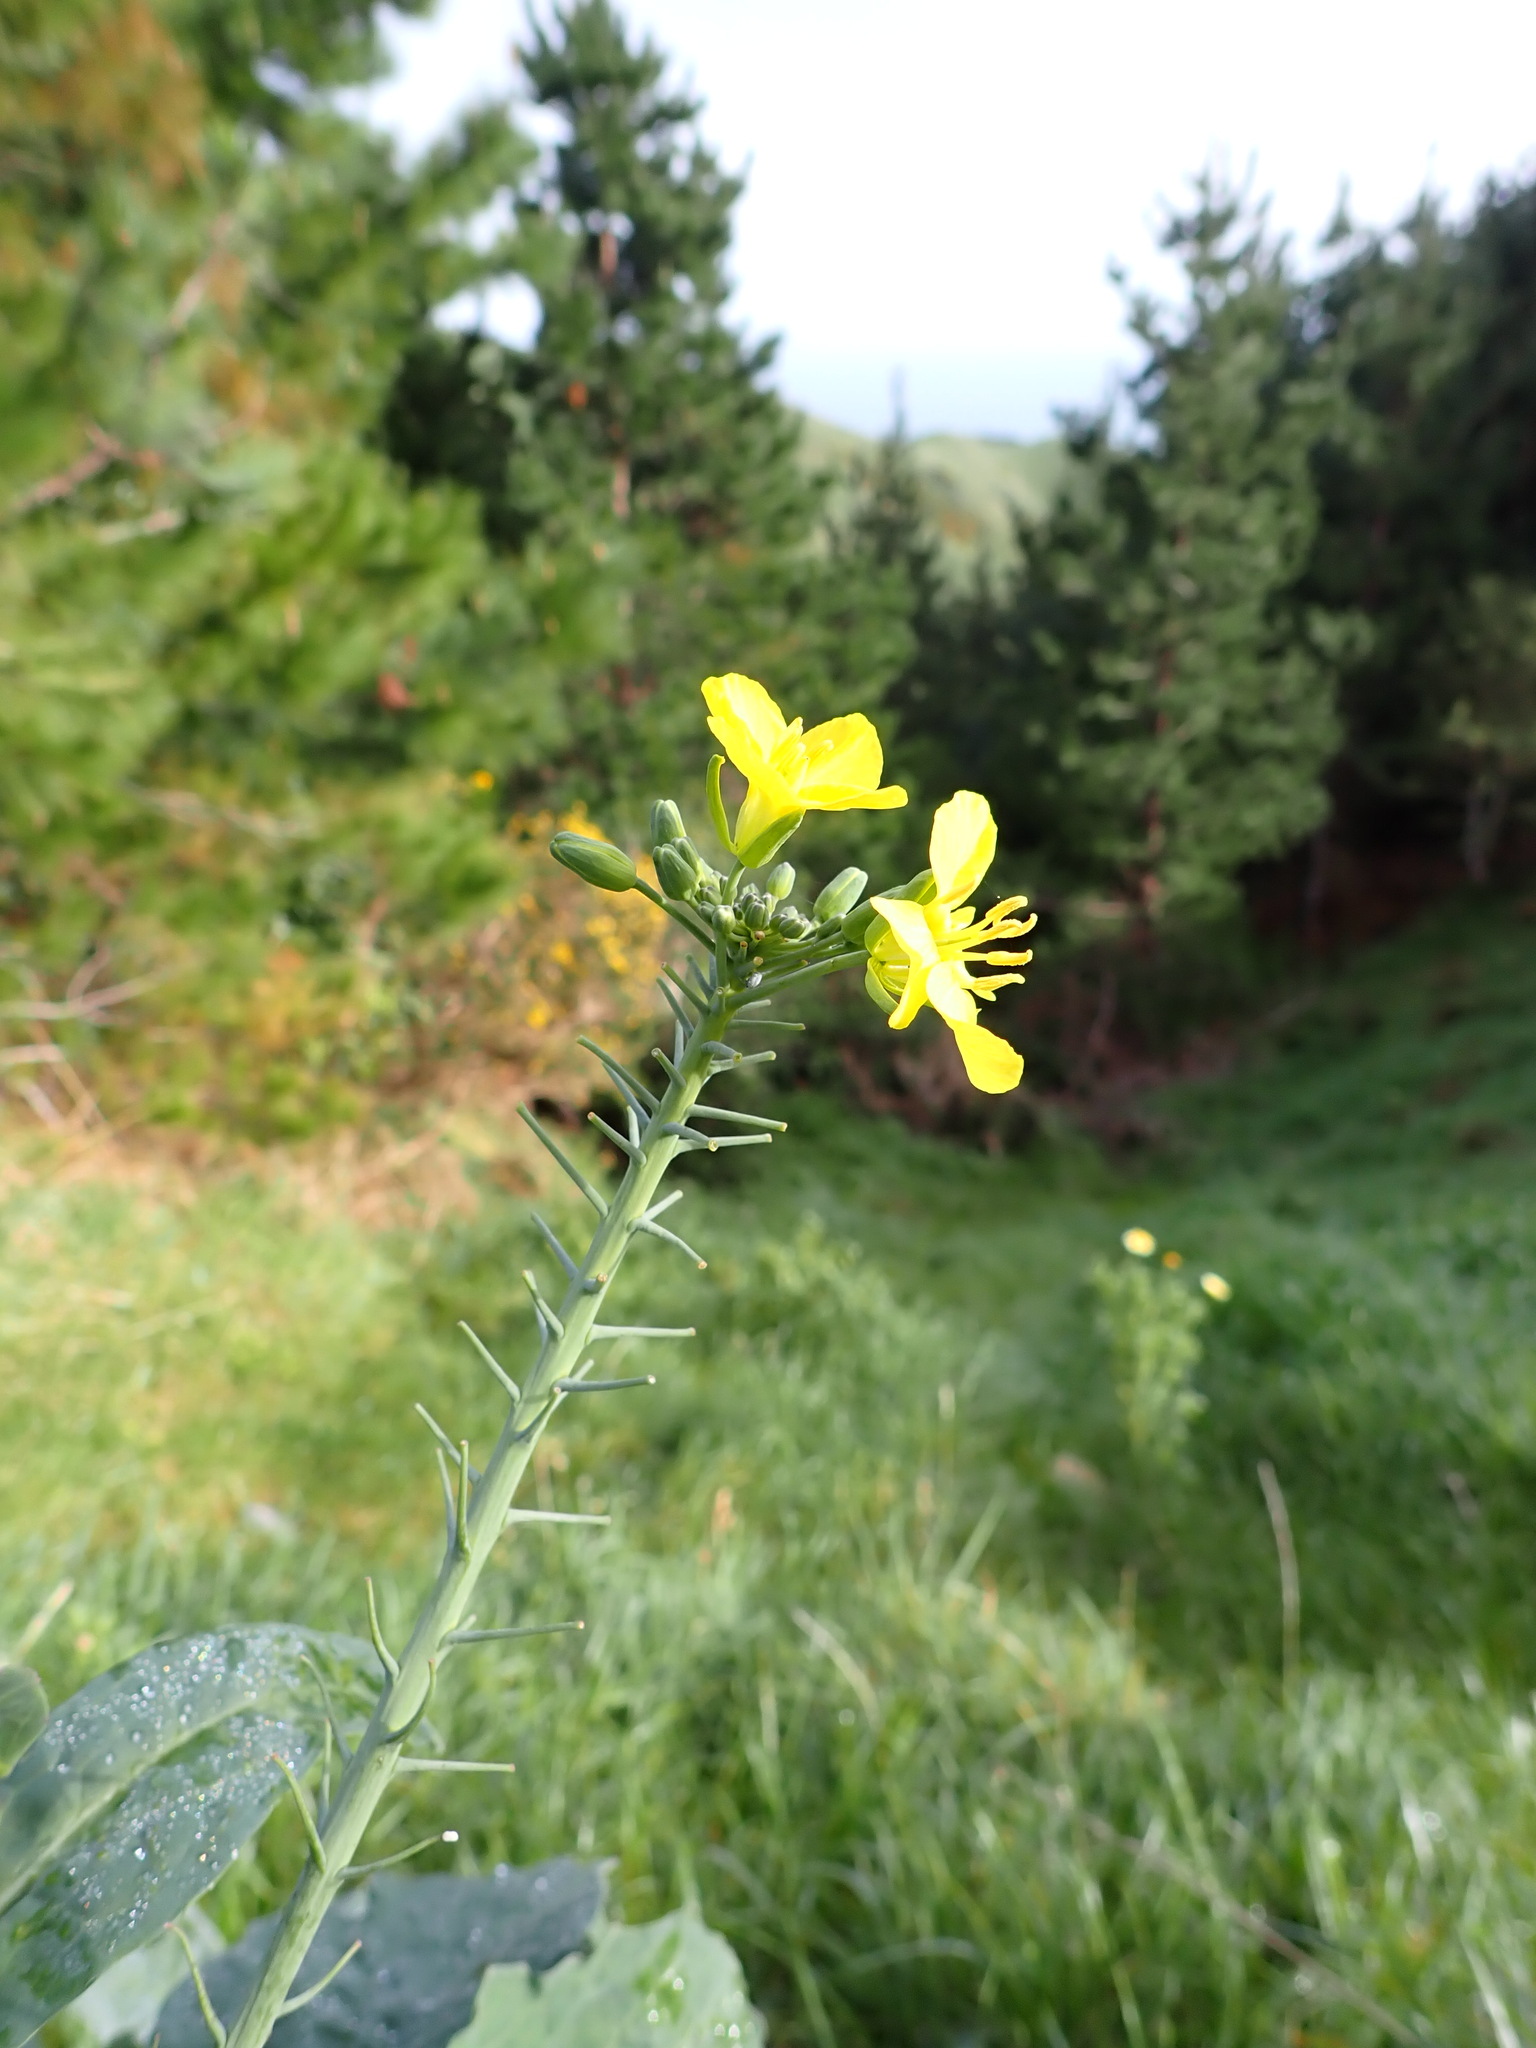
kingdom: Plantae
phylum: Tracheophyta
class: Magnoliopsida
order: Brassicales
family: Brassicaceae
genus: Brassica
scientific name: Brassica oleracea
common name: Cabbage
